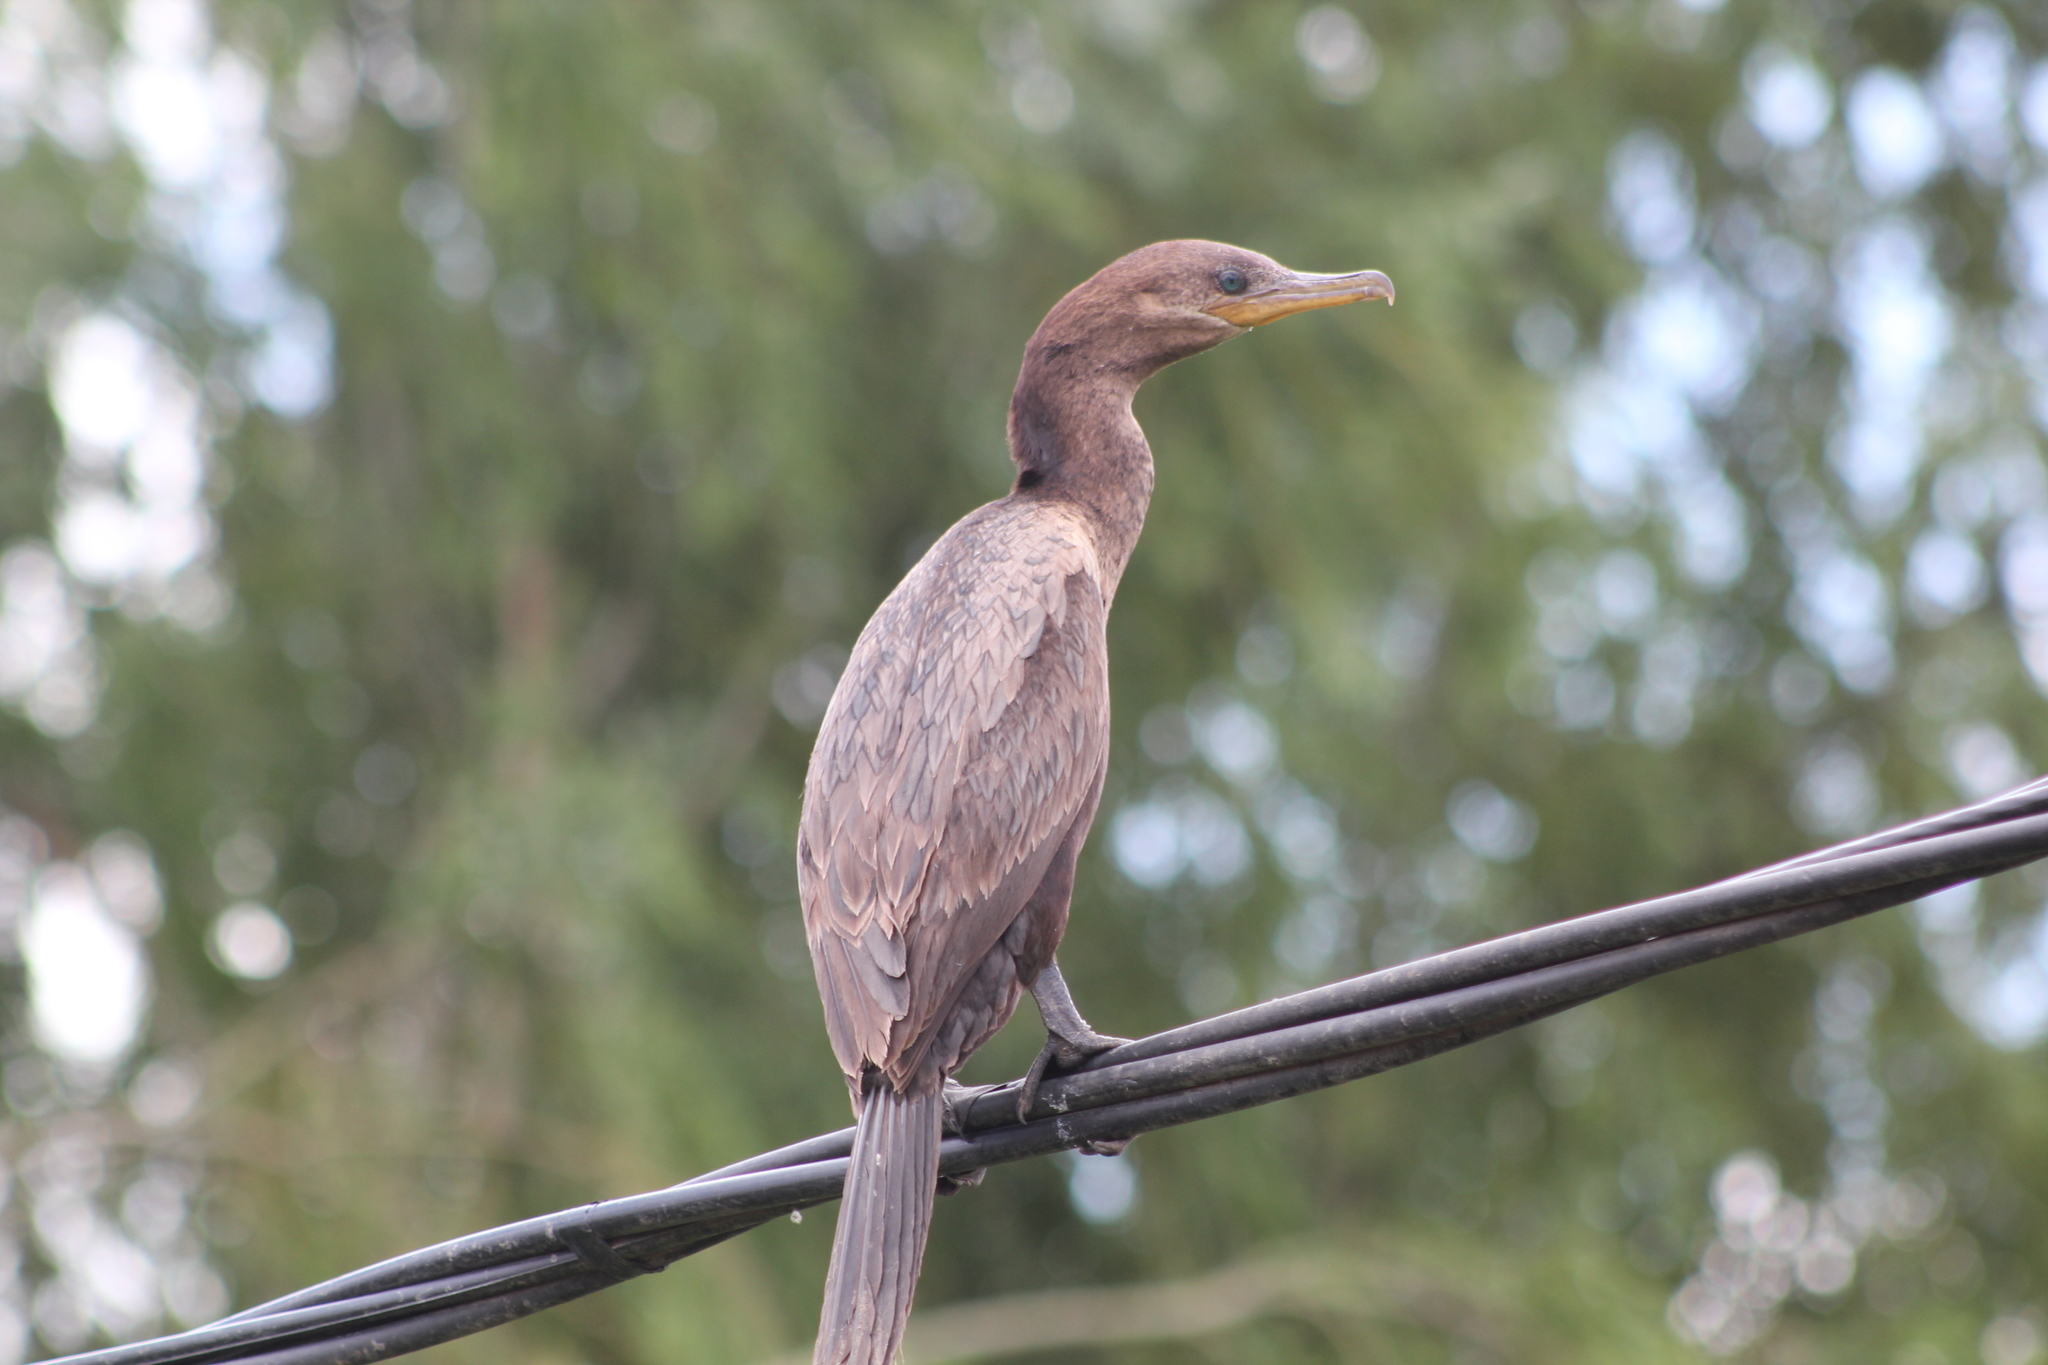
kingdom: Animalia
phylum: Chordata
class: Aves
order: Suliformes
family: Phalacrocoracidae
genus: Phalacrocorax
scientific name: Phalacrocorax brasilianus
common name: Neotropic cormorant
